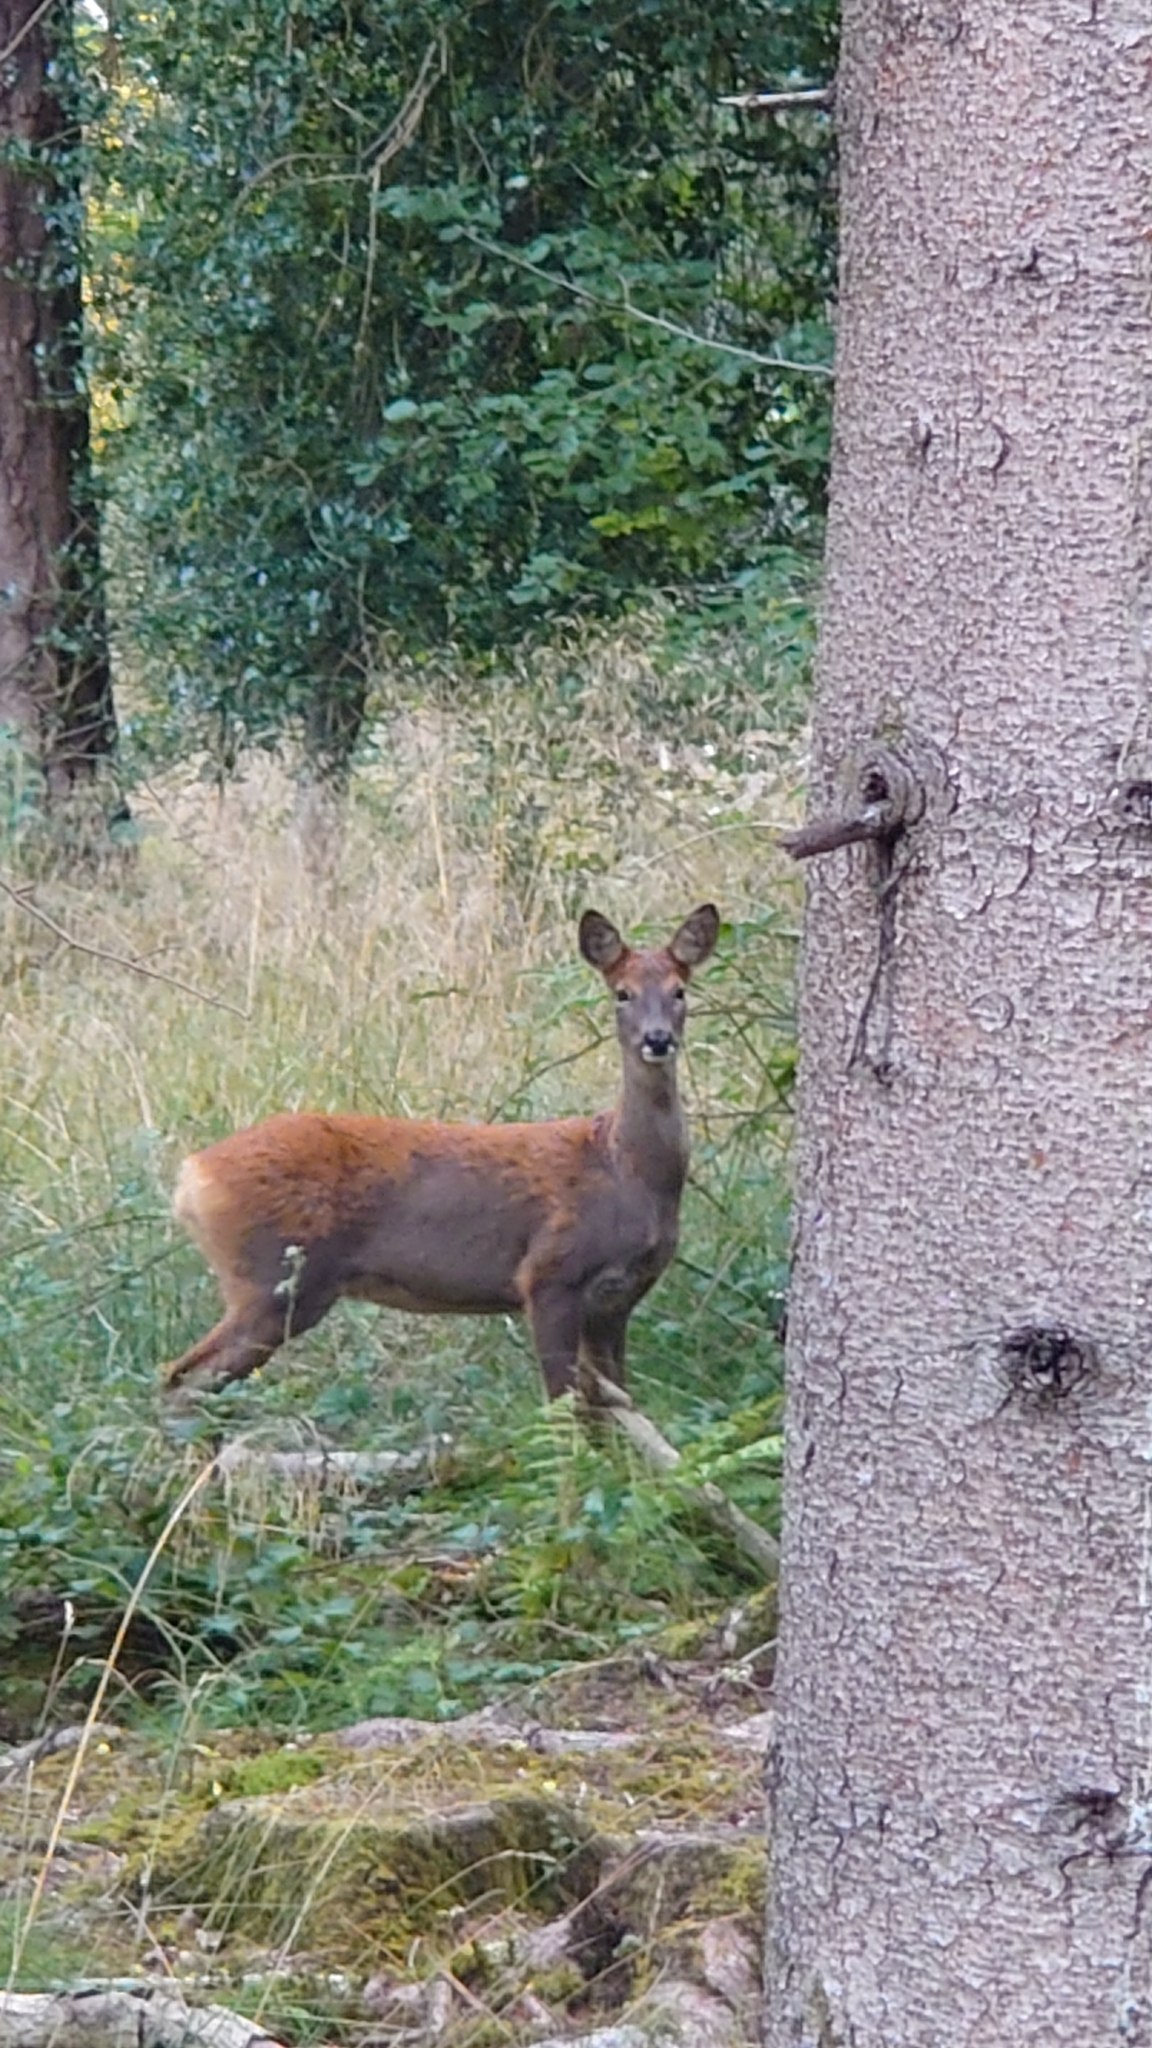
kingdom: Animalia
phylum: Chordata
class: Mammalia
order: Artiodactyla
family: Cervidae
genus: Capreolus
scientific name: Capreolus capreolus
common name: Western roe deer
